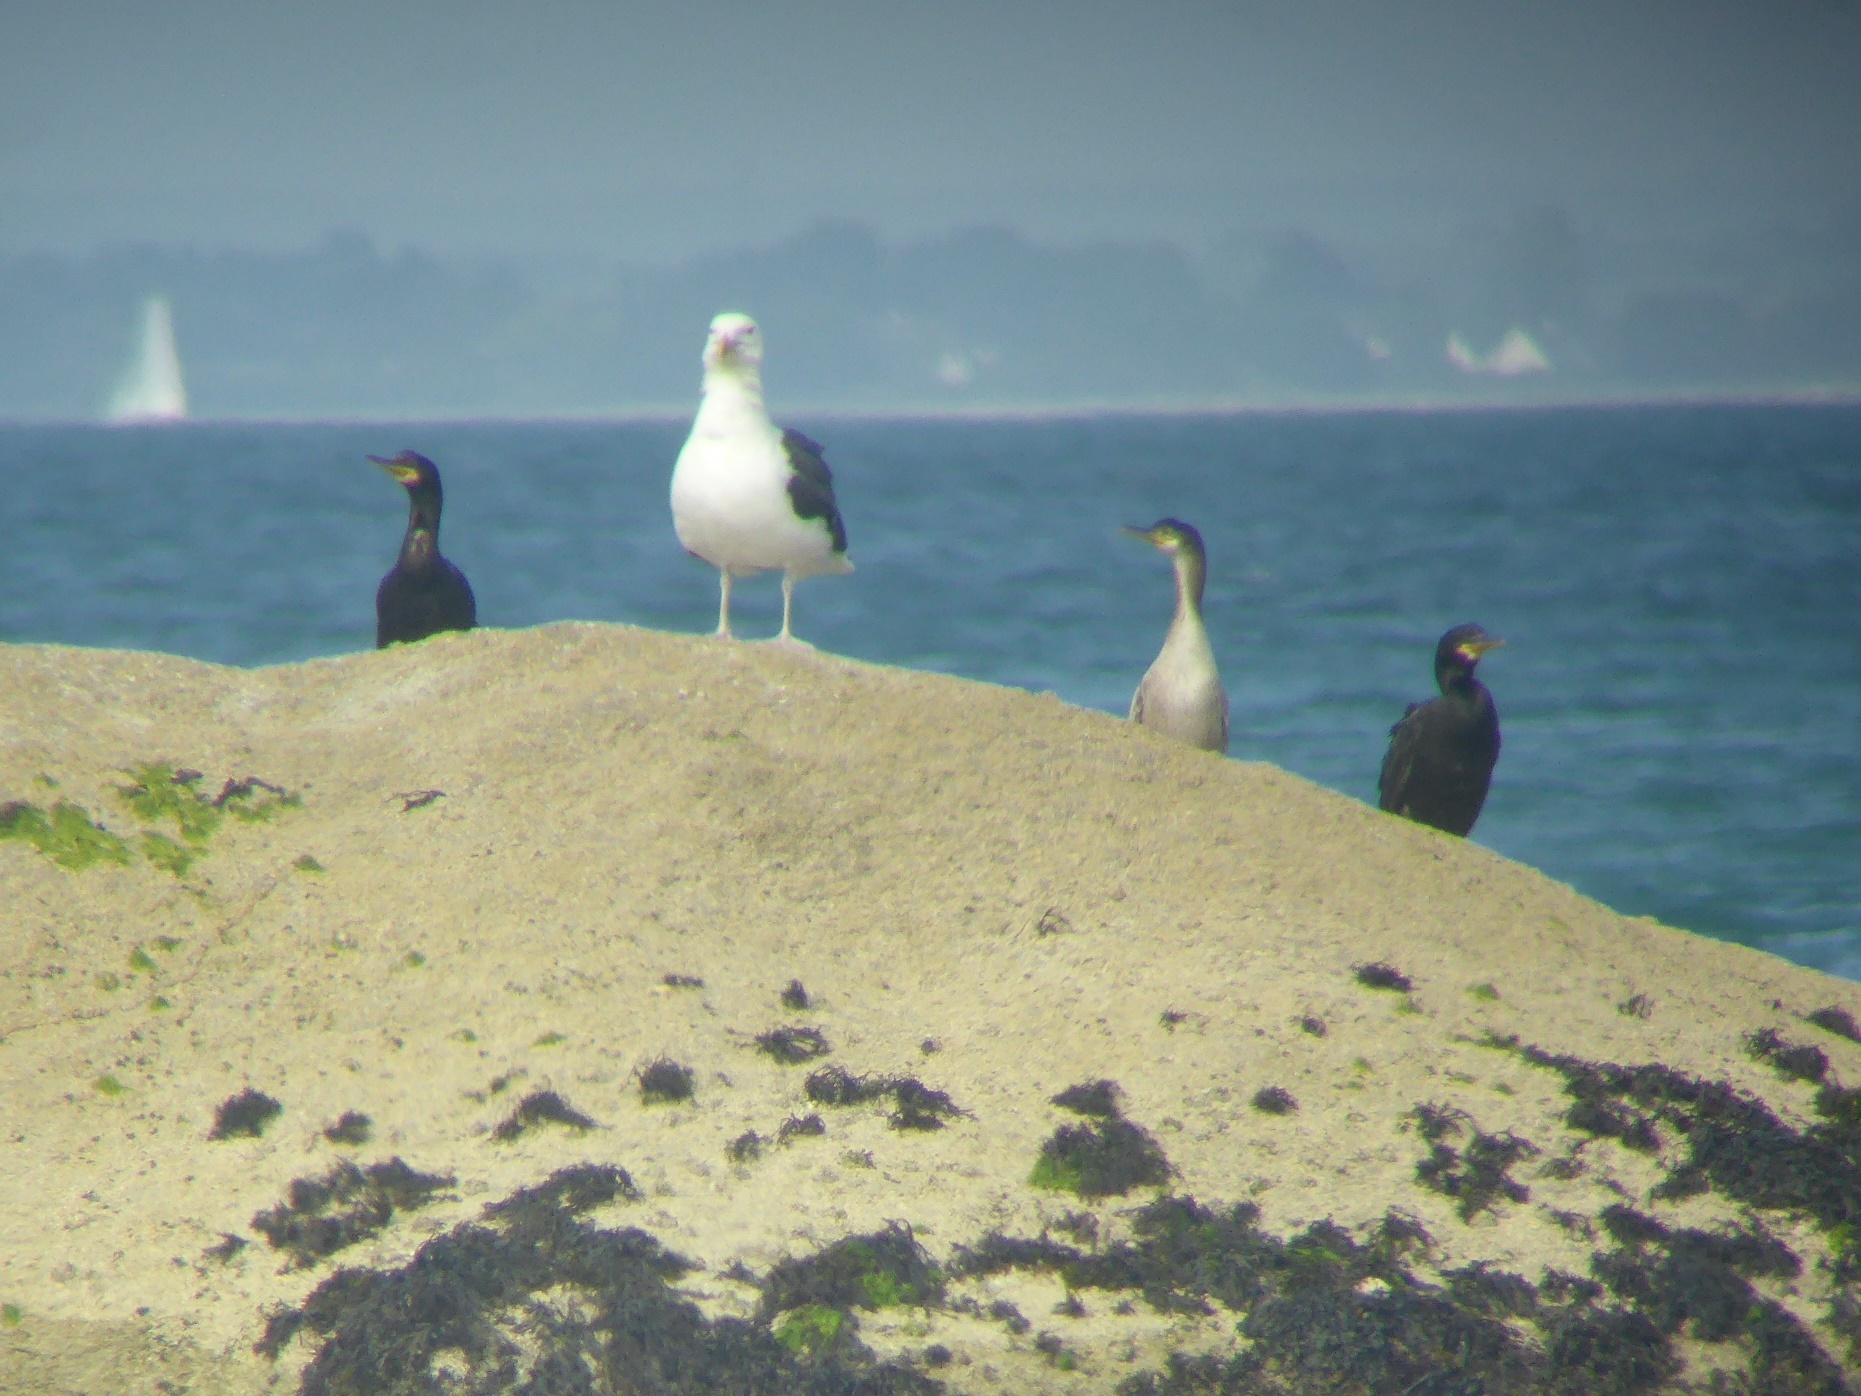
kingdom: Animalia
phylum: Chordata
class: Aves
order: Suliformes
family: Phalacrocoracidae
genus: Phalacrocorax
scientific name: Phalacrocorax aristotelis
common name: European shag
